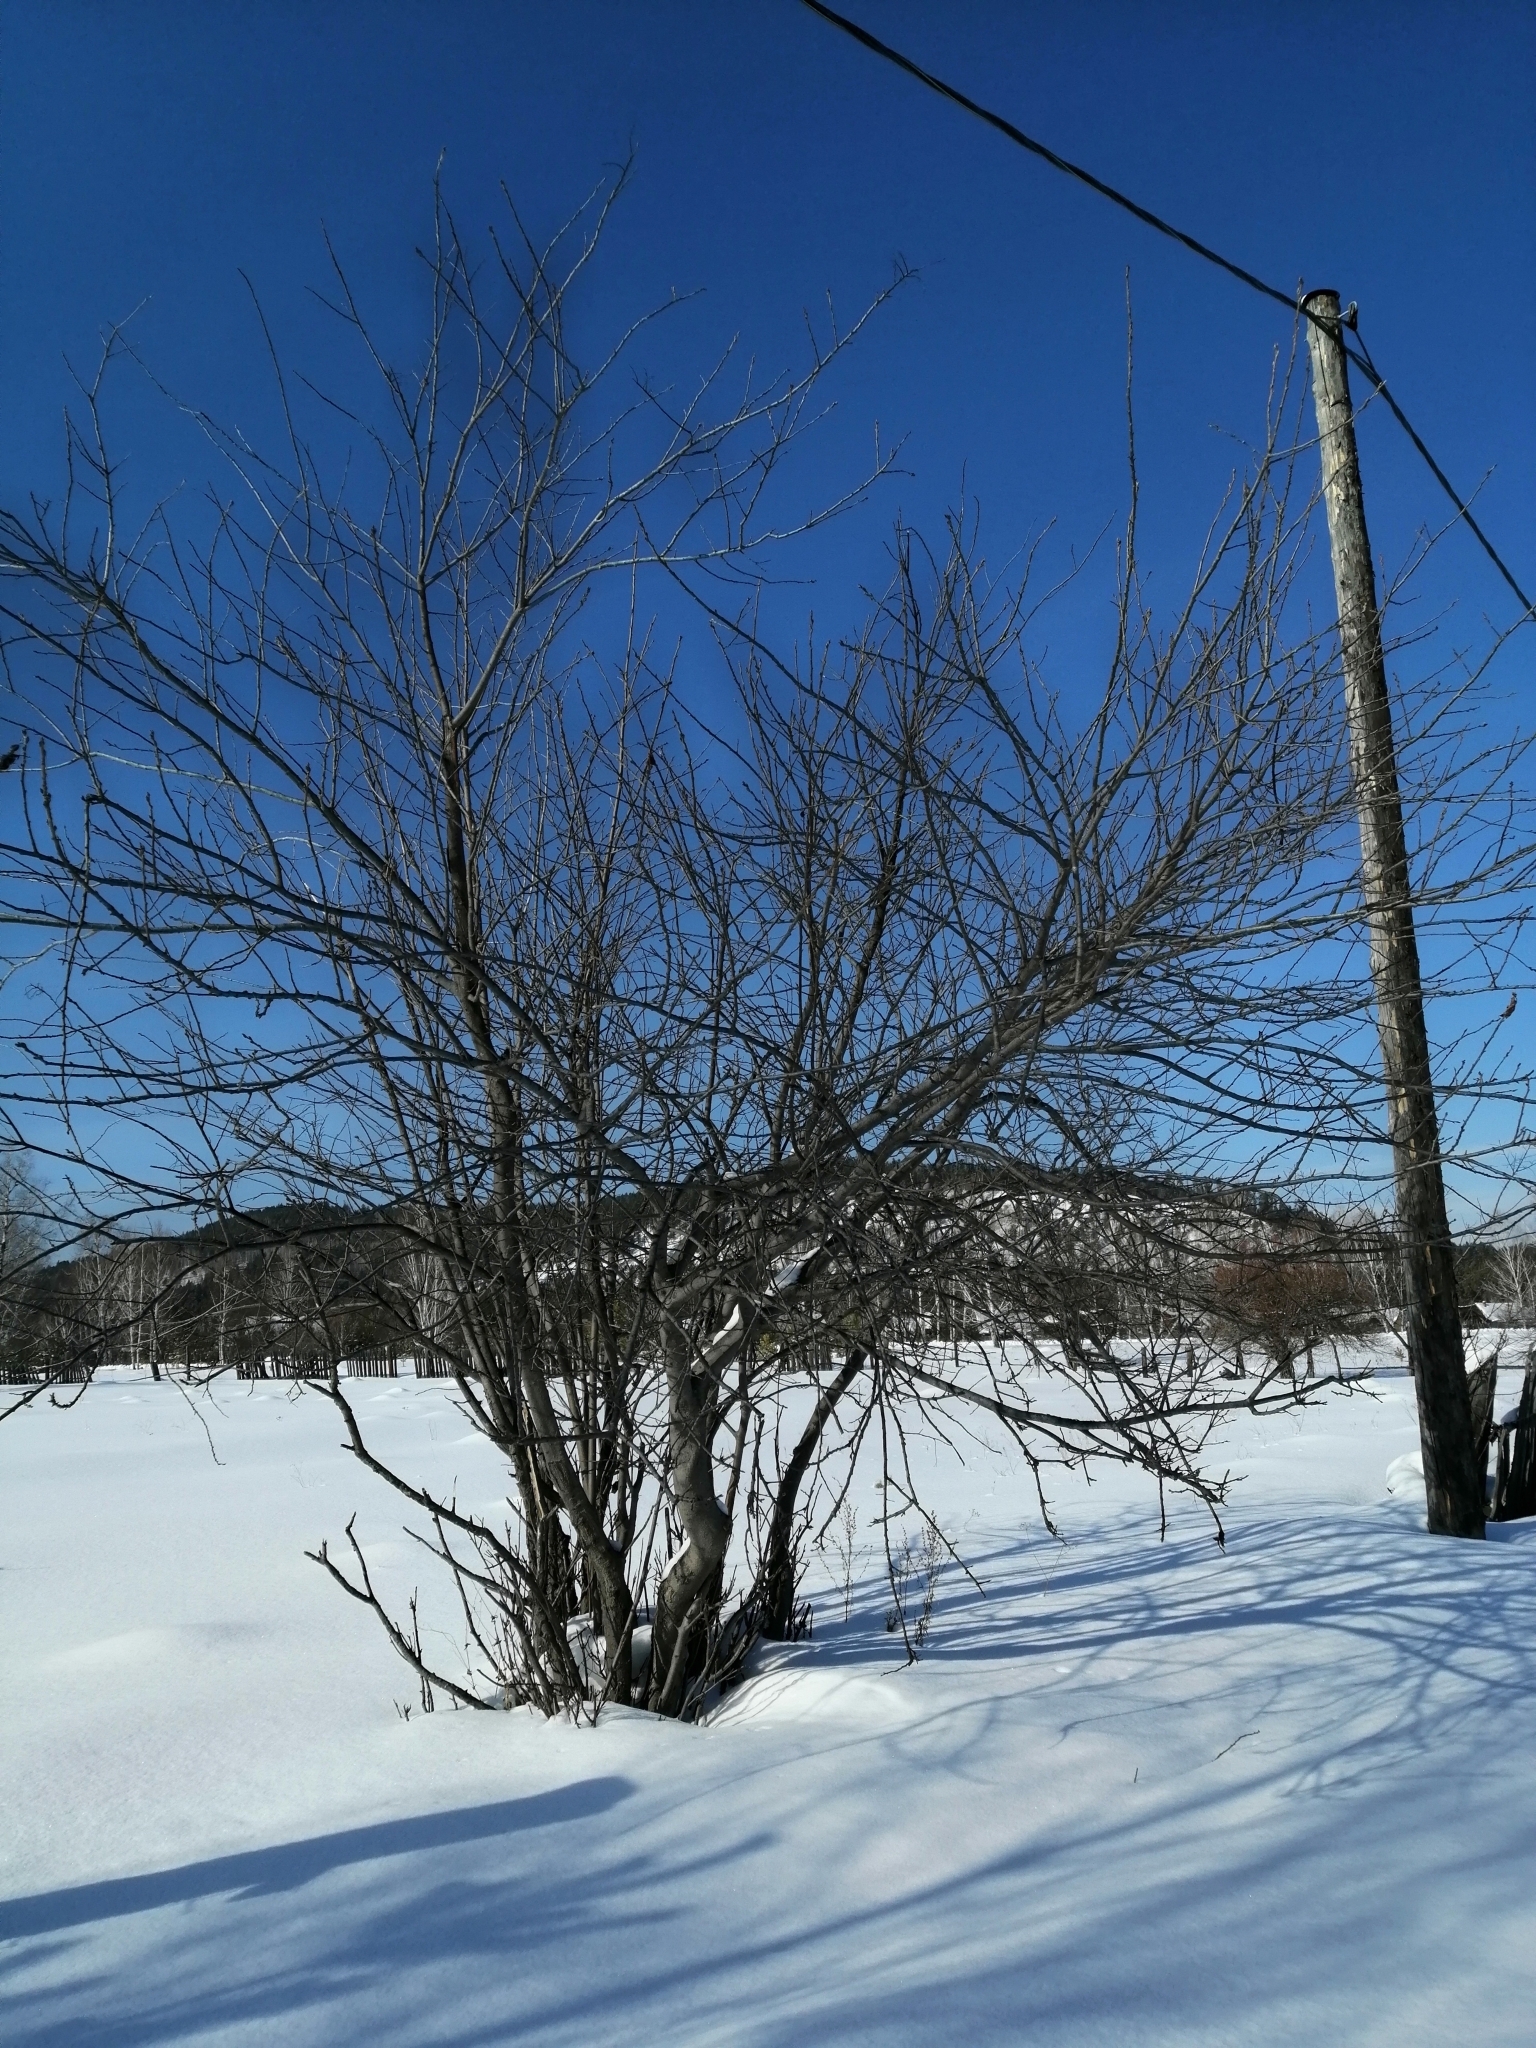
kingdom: Plantae
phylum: Tracheophyta
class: Magnoliopsida
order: Rosales
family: Rosaceae
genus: Prunus
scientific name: Prunus padus
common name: Bird cherry
